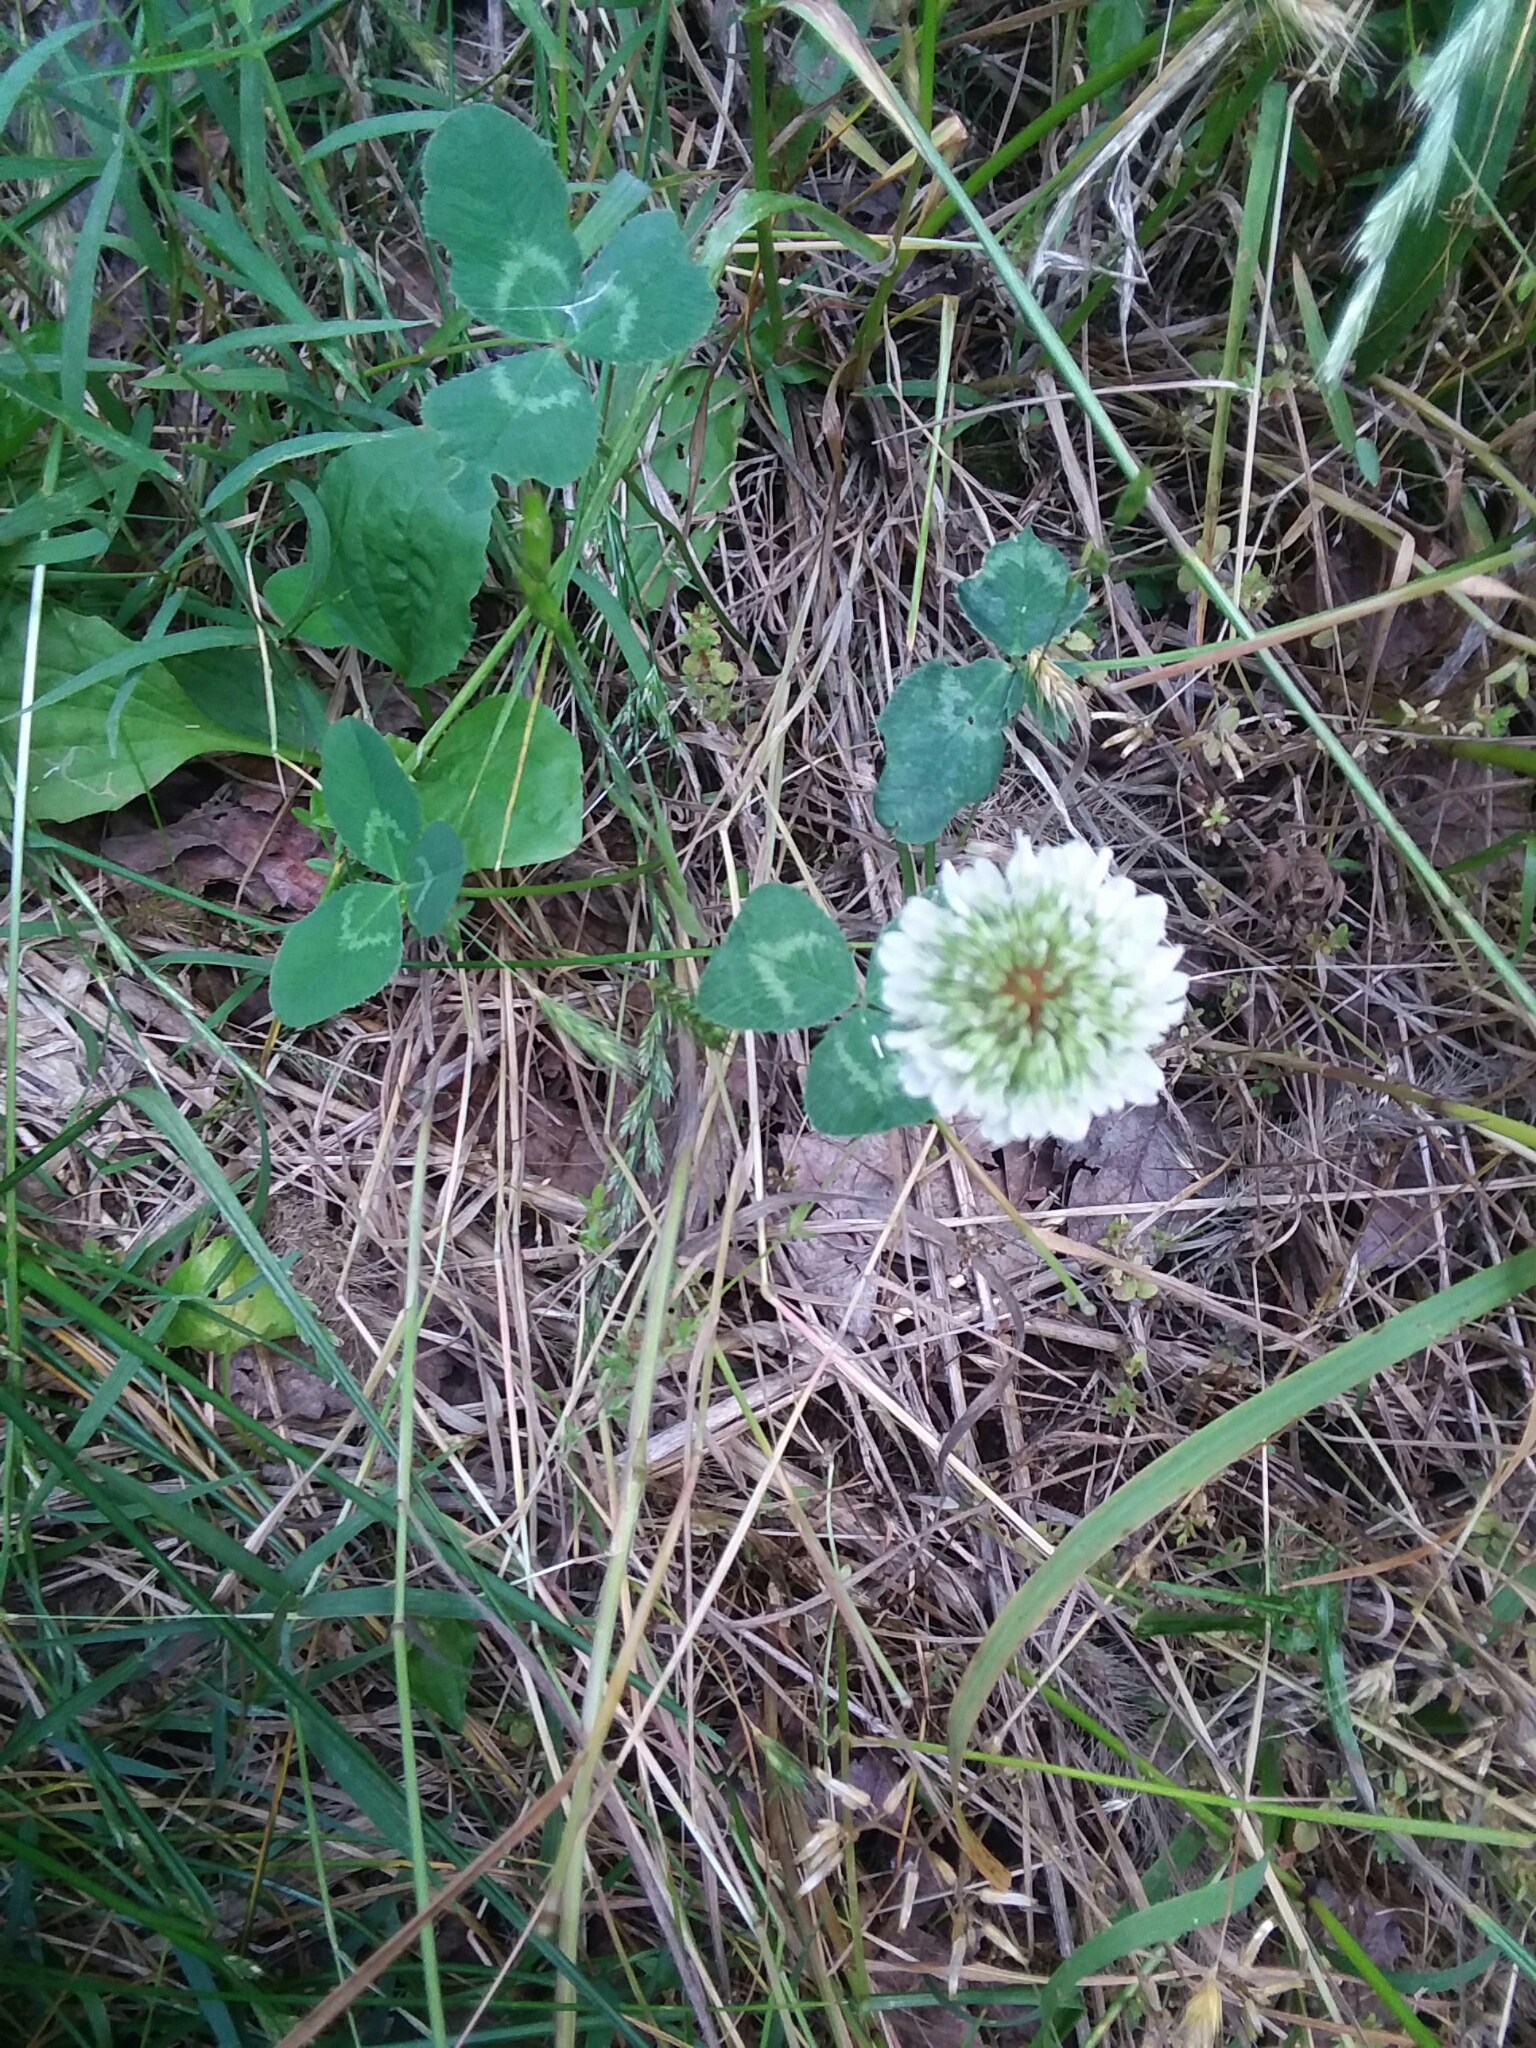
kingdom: Plantae
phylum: Tracheophyta
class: Magnoliopsida
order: Fabales
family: Fabaceae
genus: Trifolium
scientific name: Trifolium repens
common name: White clover
